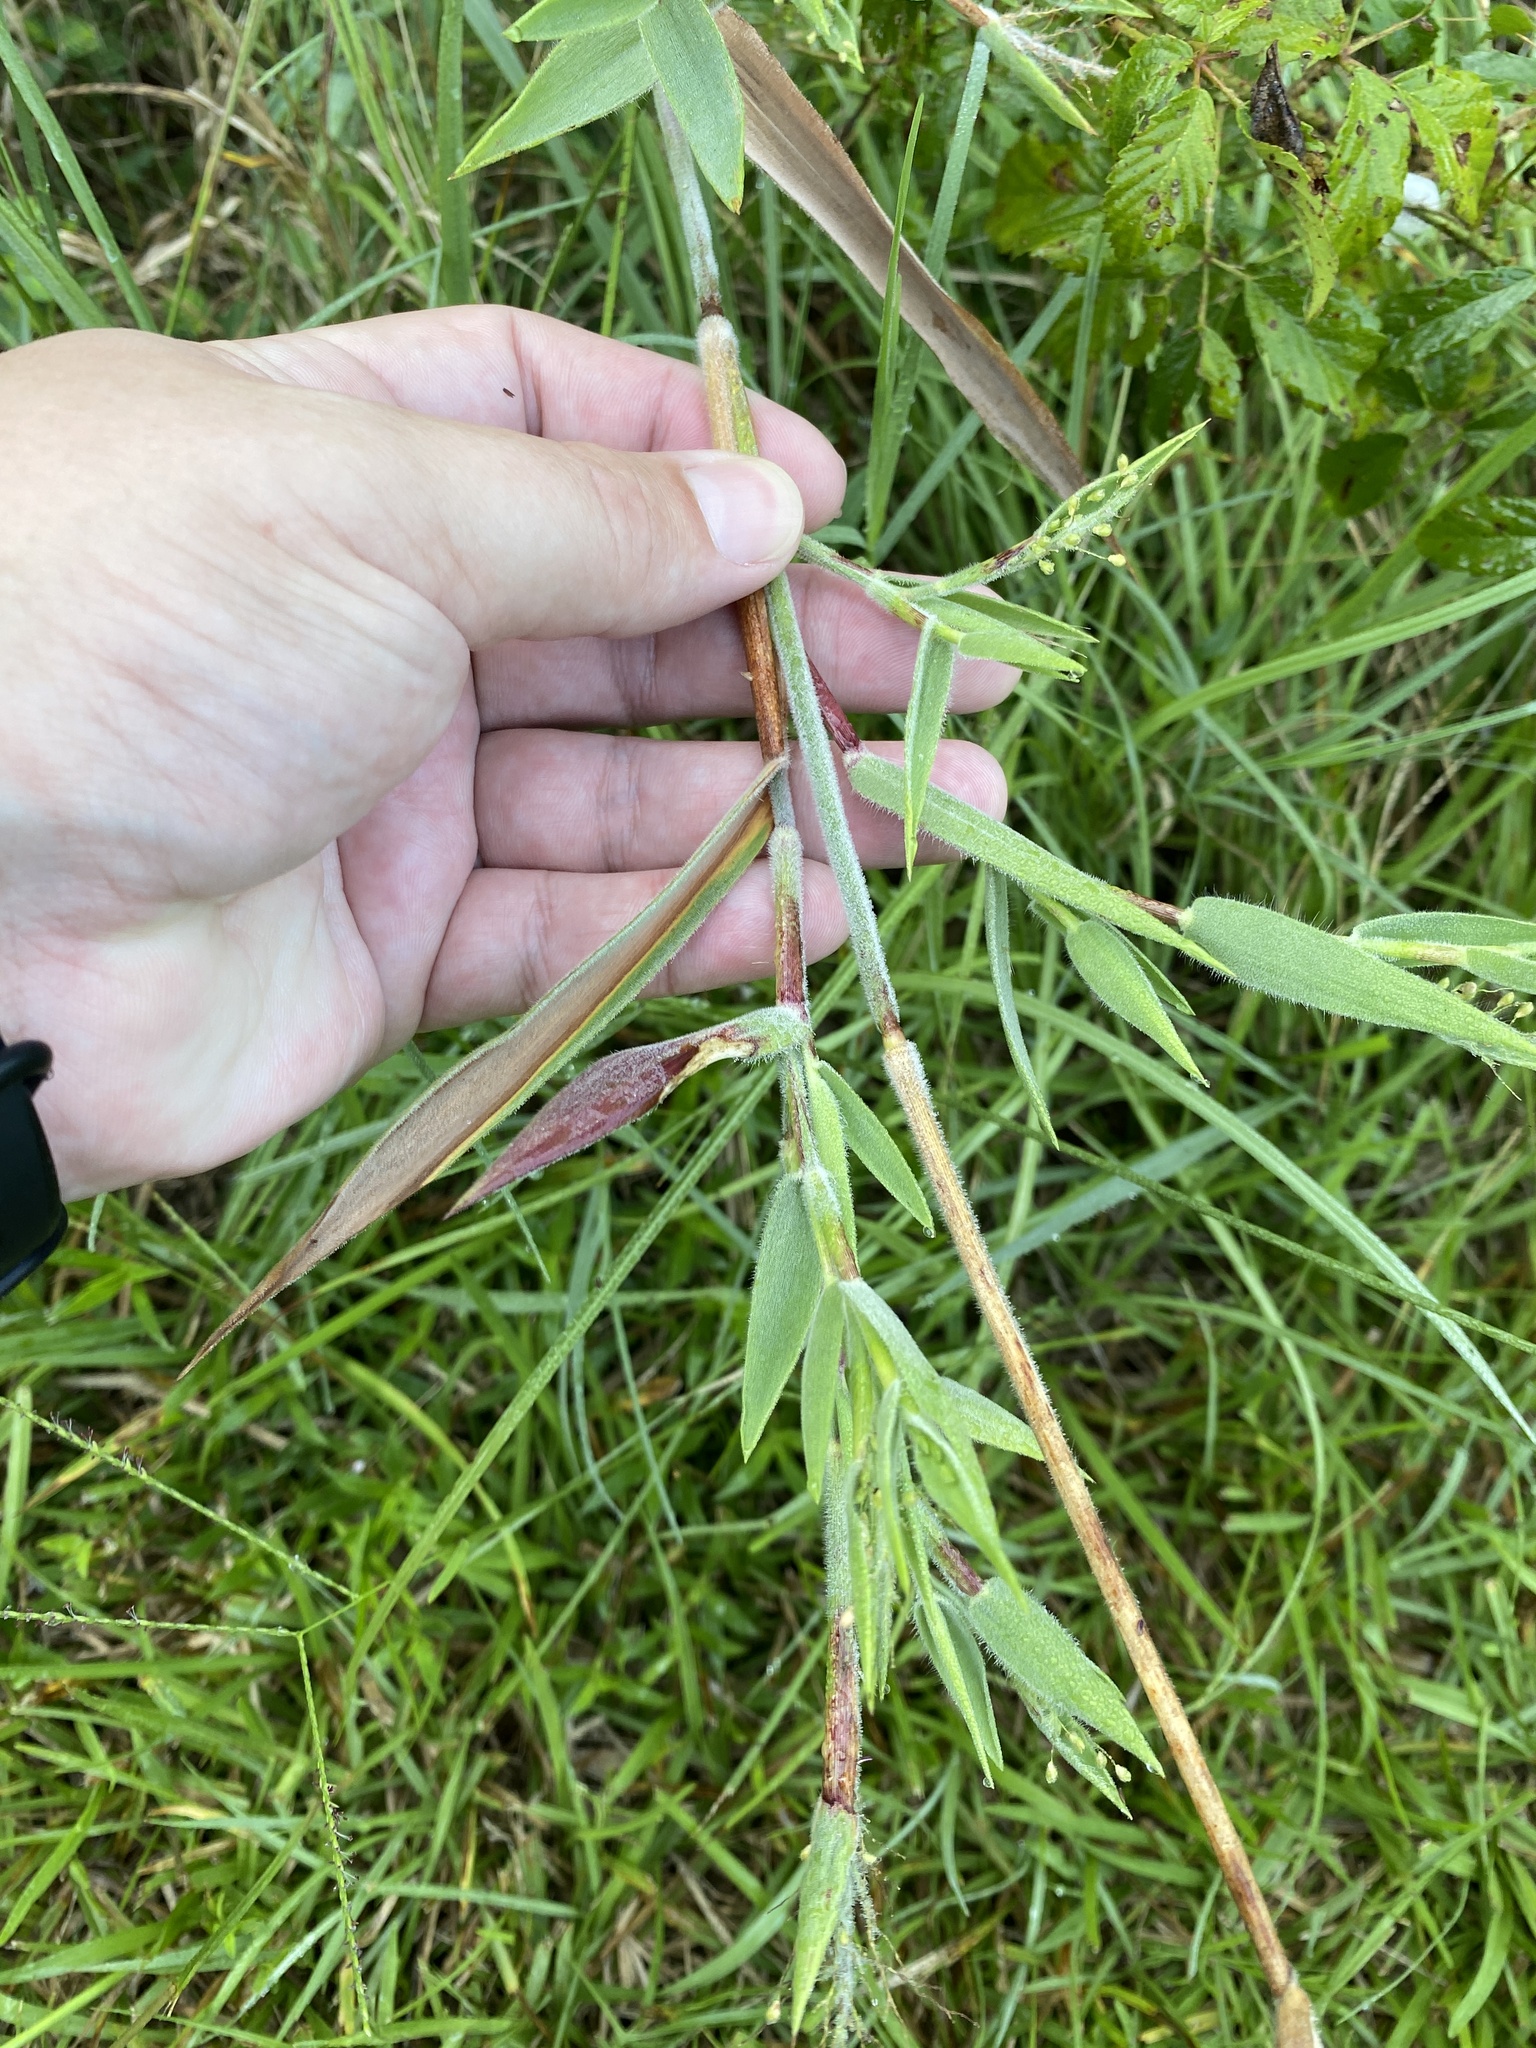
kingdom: Plantae
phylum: Tracheophyta
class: Liliopsida
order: Poales
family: Poaceae
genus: Dichanthelium
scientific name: Dichanthelium scoparium
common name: Velvety panic grass
